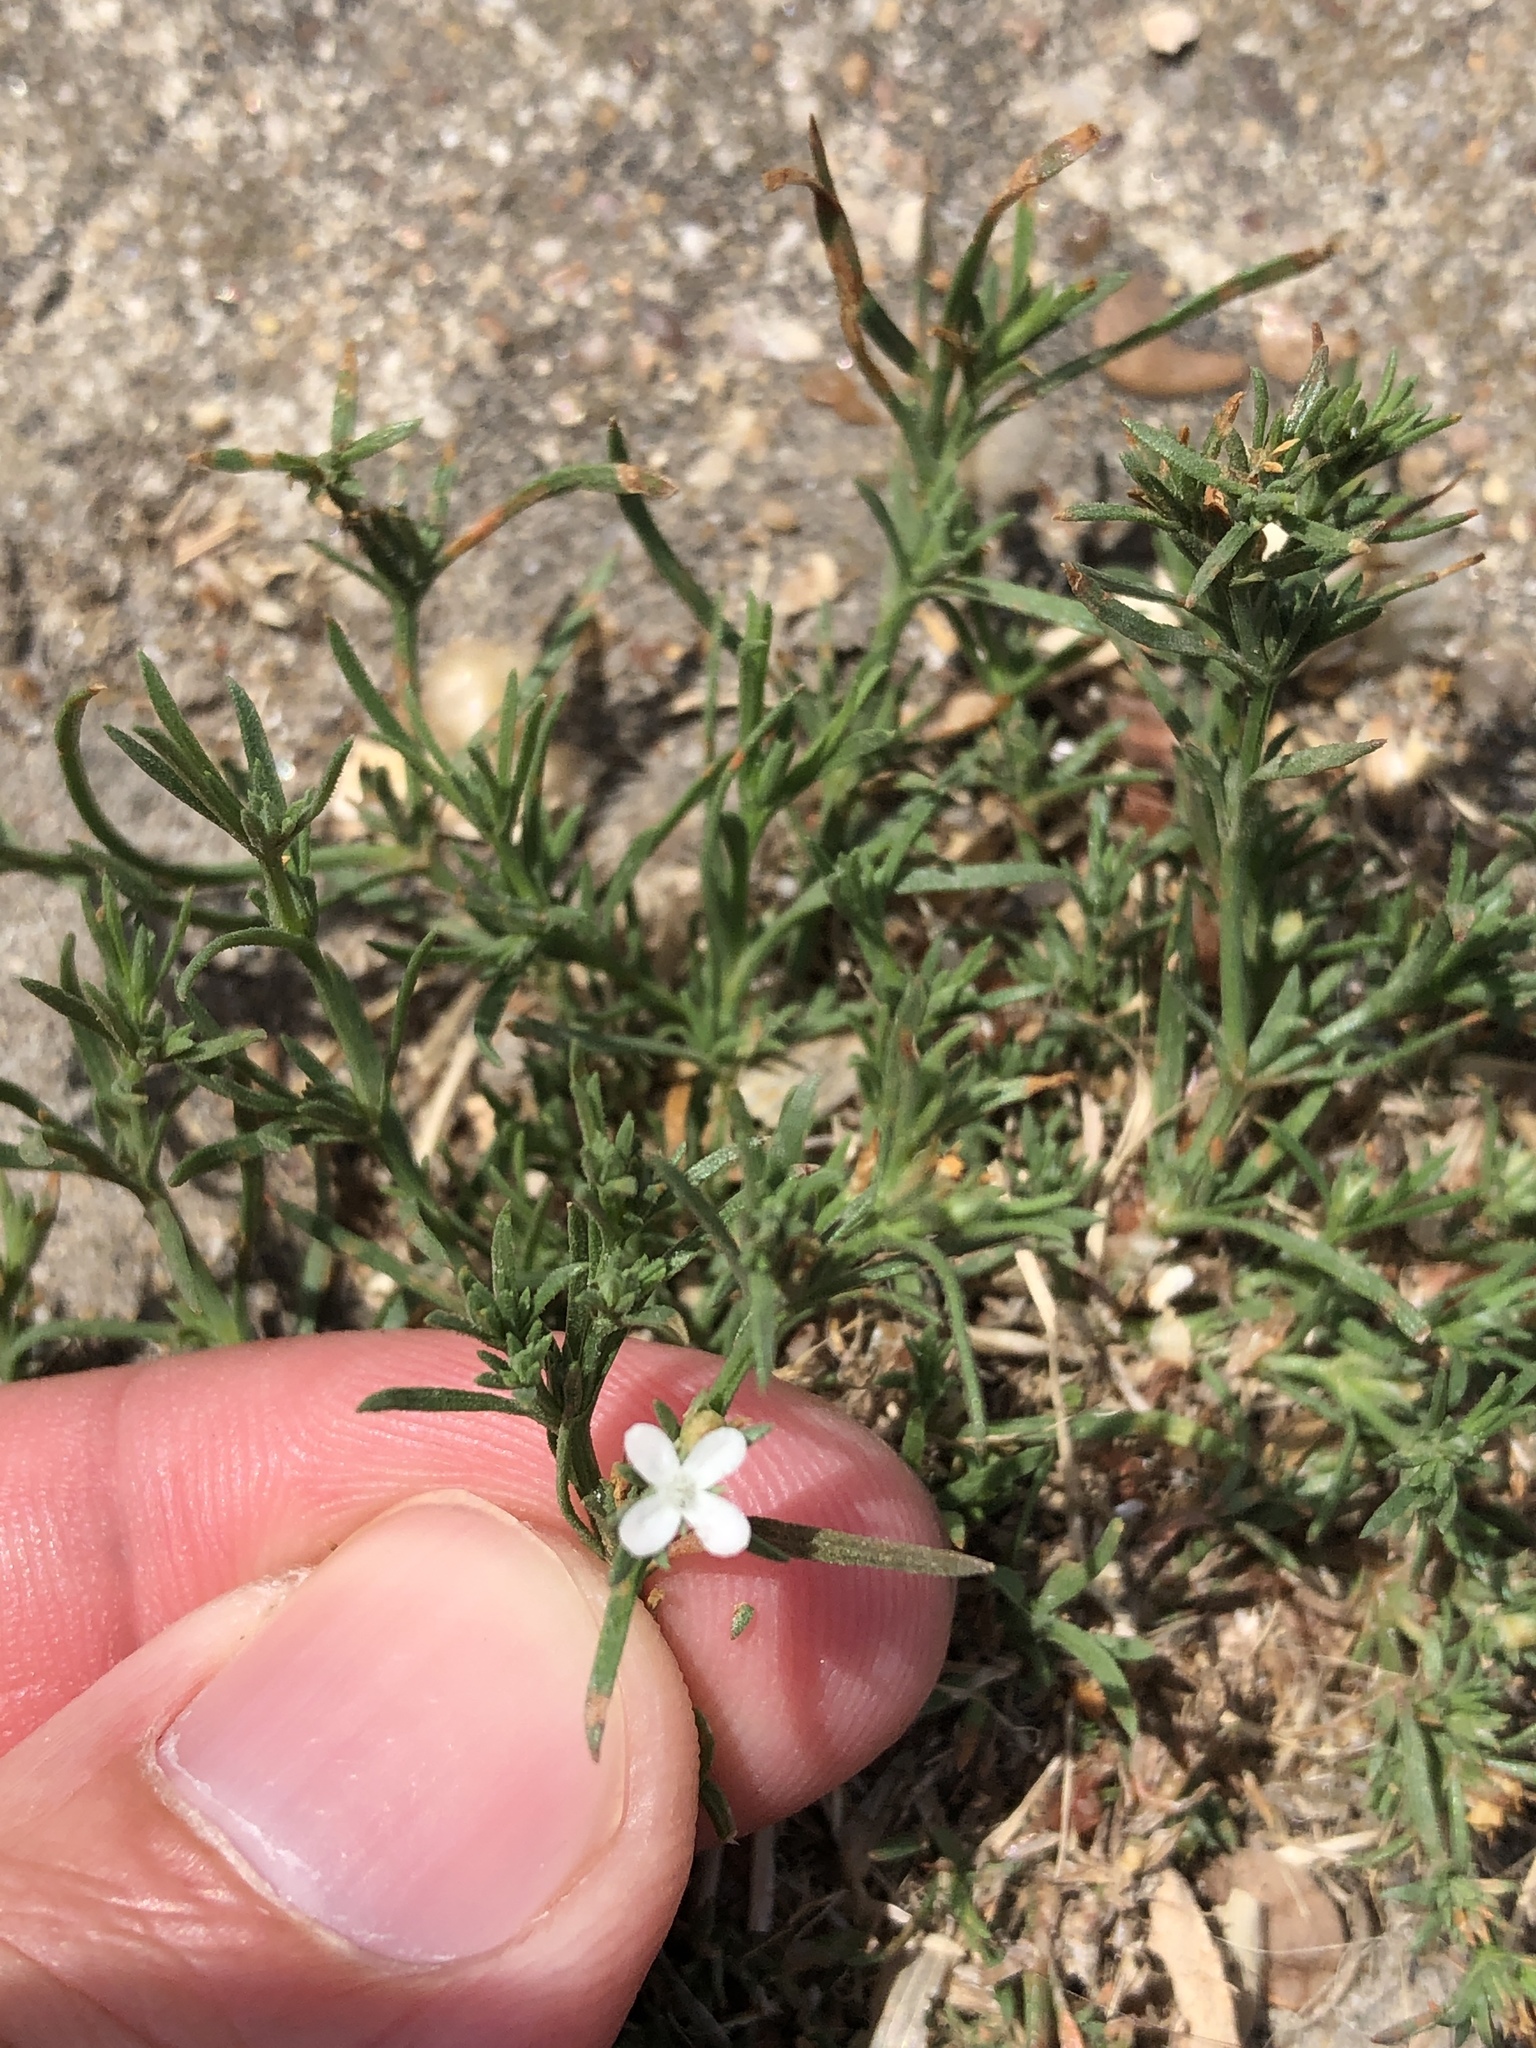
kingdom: Plantae
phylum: Tracheophyta
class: Magnoliopsida
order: Lamiales
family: Tetrachondraceae
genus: Polypremum
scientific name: Polypremum procumbens
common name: Juniper-leaf
